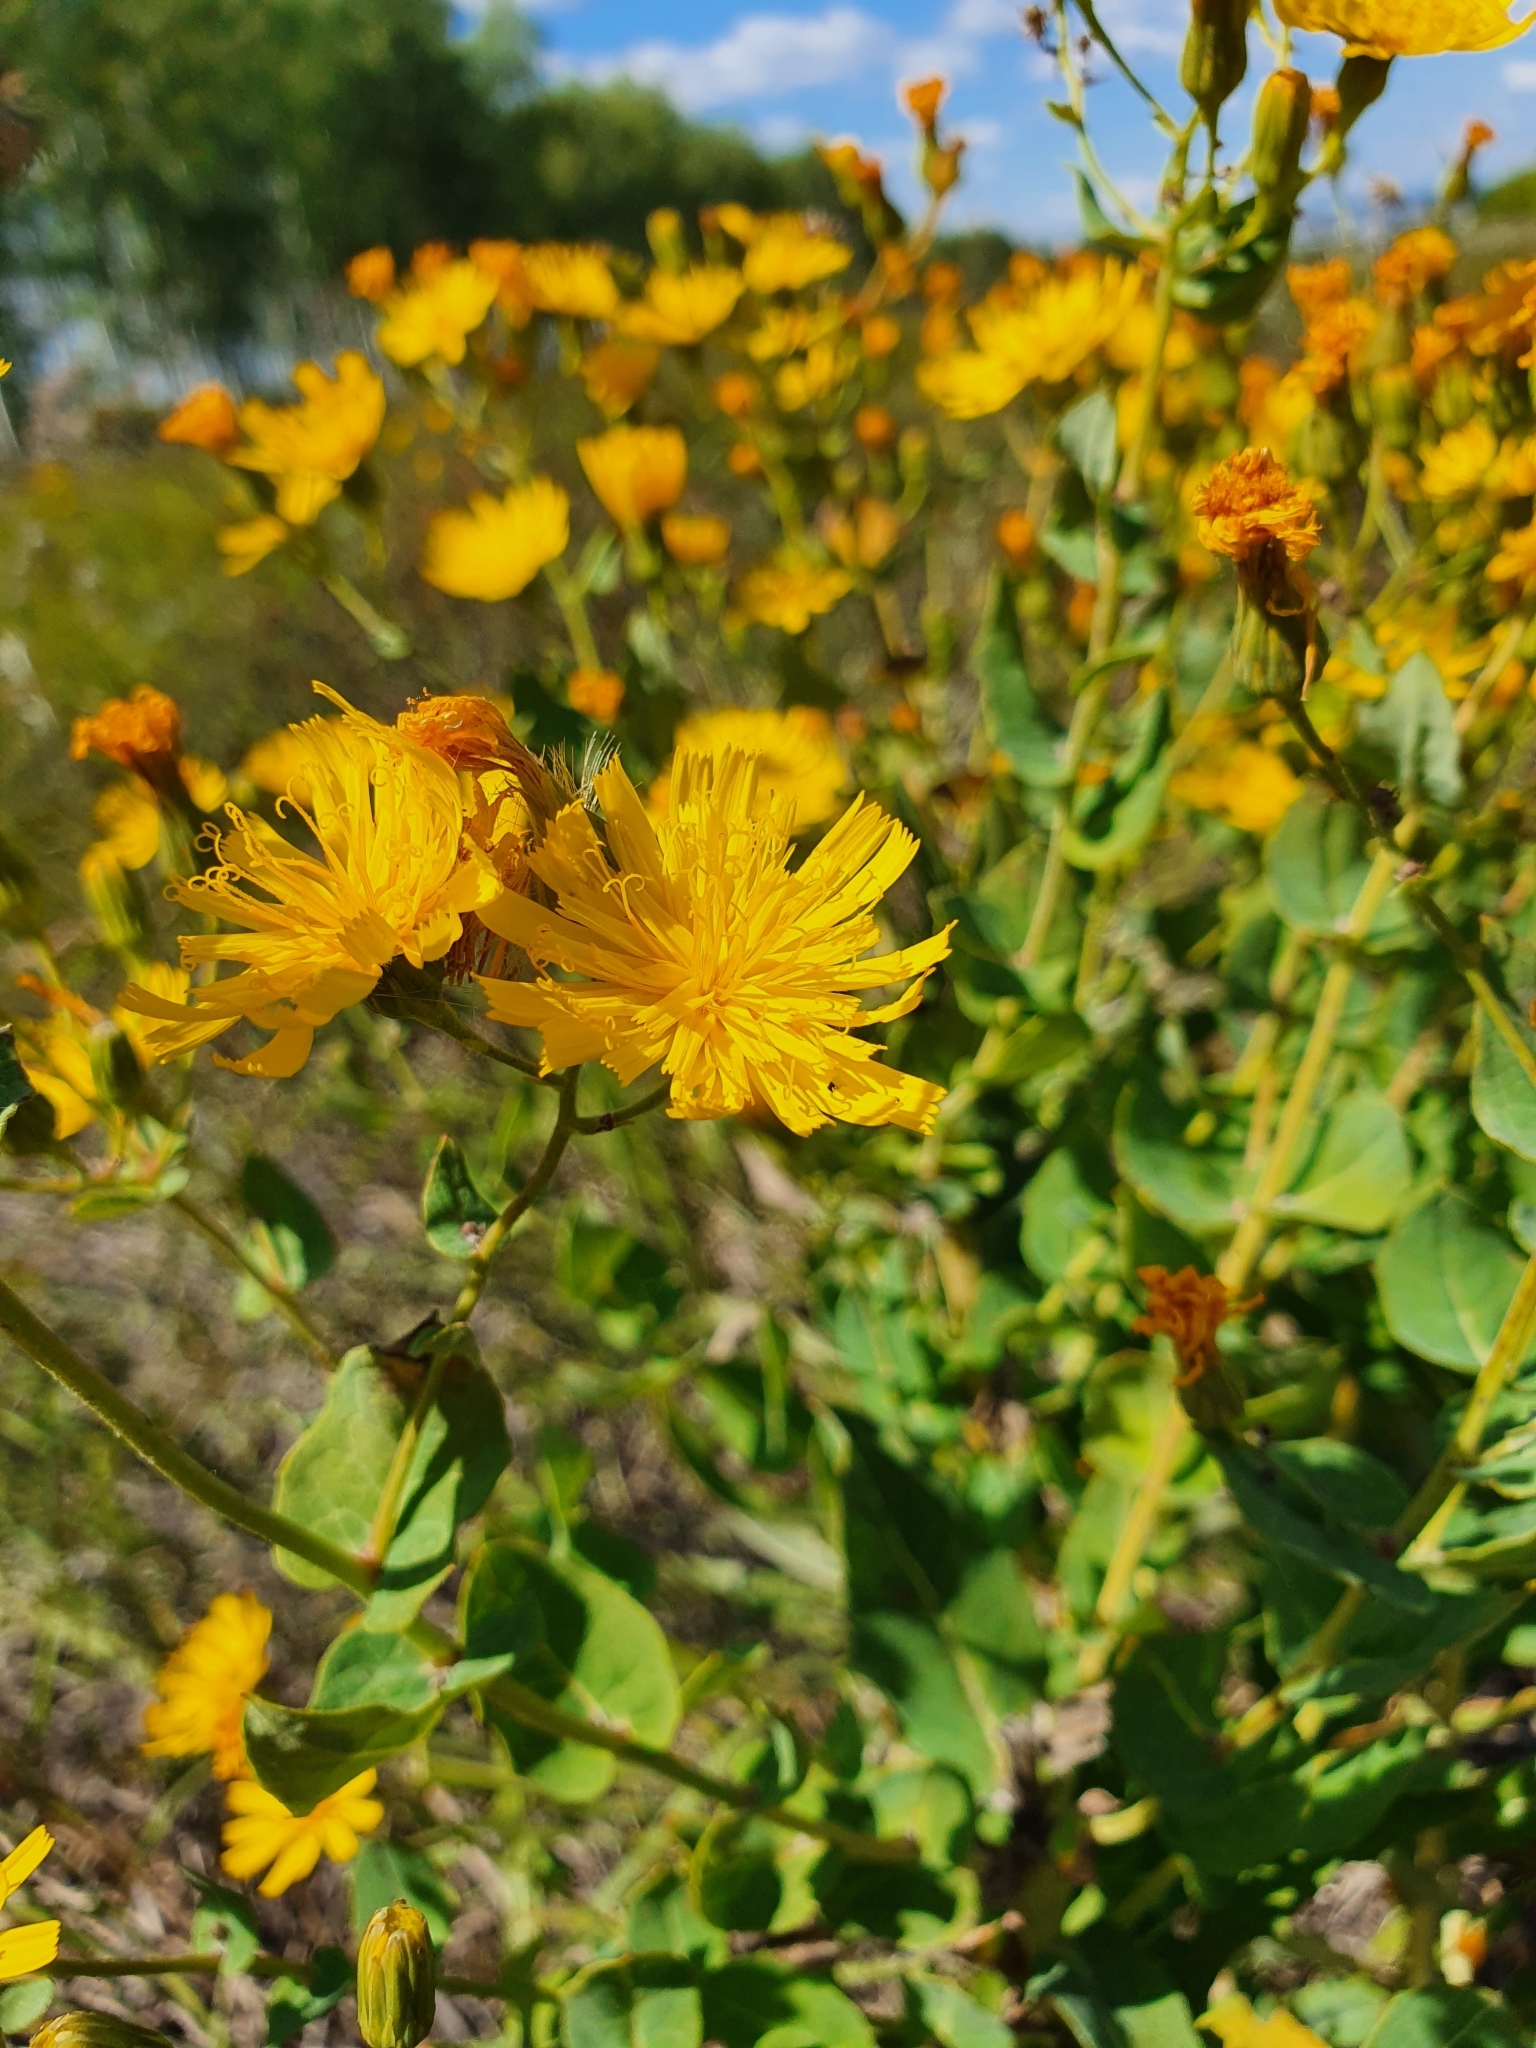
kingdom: Plantae
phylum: Tracheophyta
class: Magnoliopsida
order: Asterales
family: Asteraceae
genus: Hieracium
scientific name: Hieracium virosum
